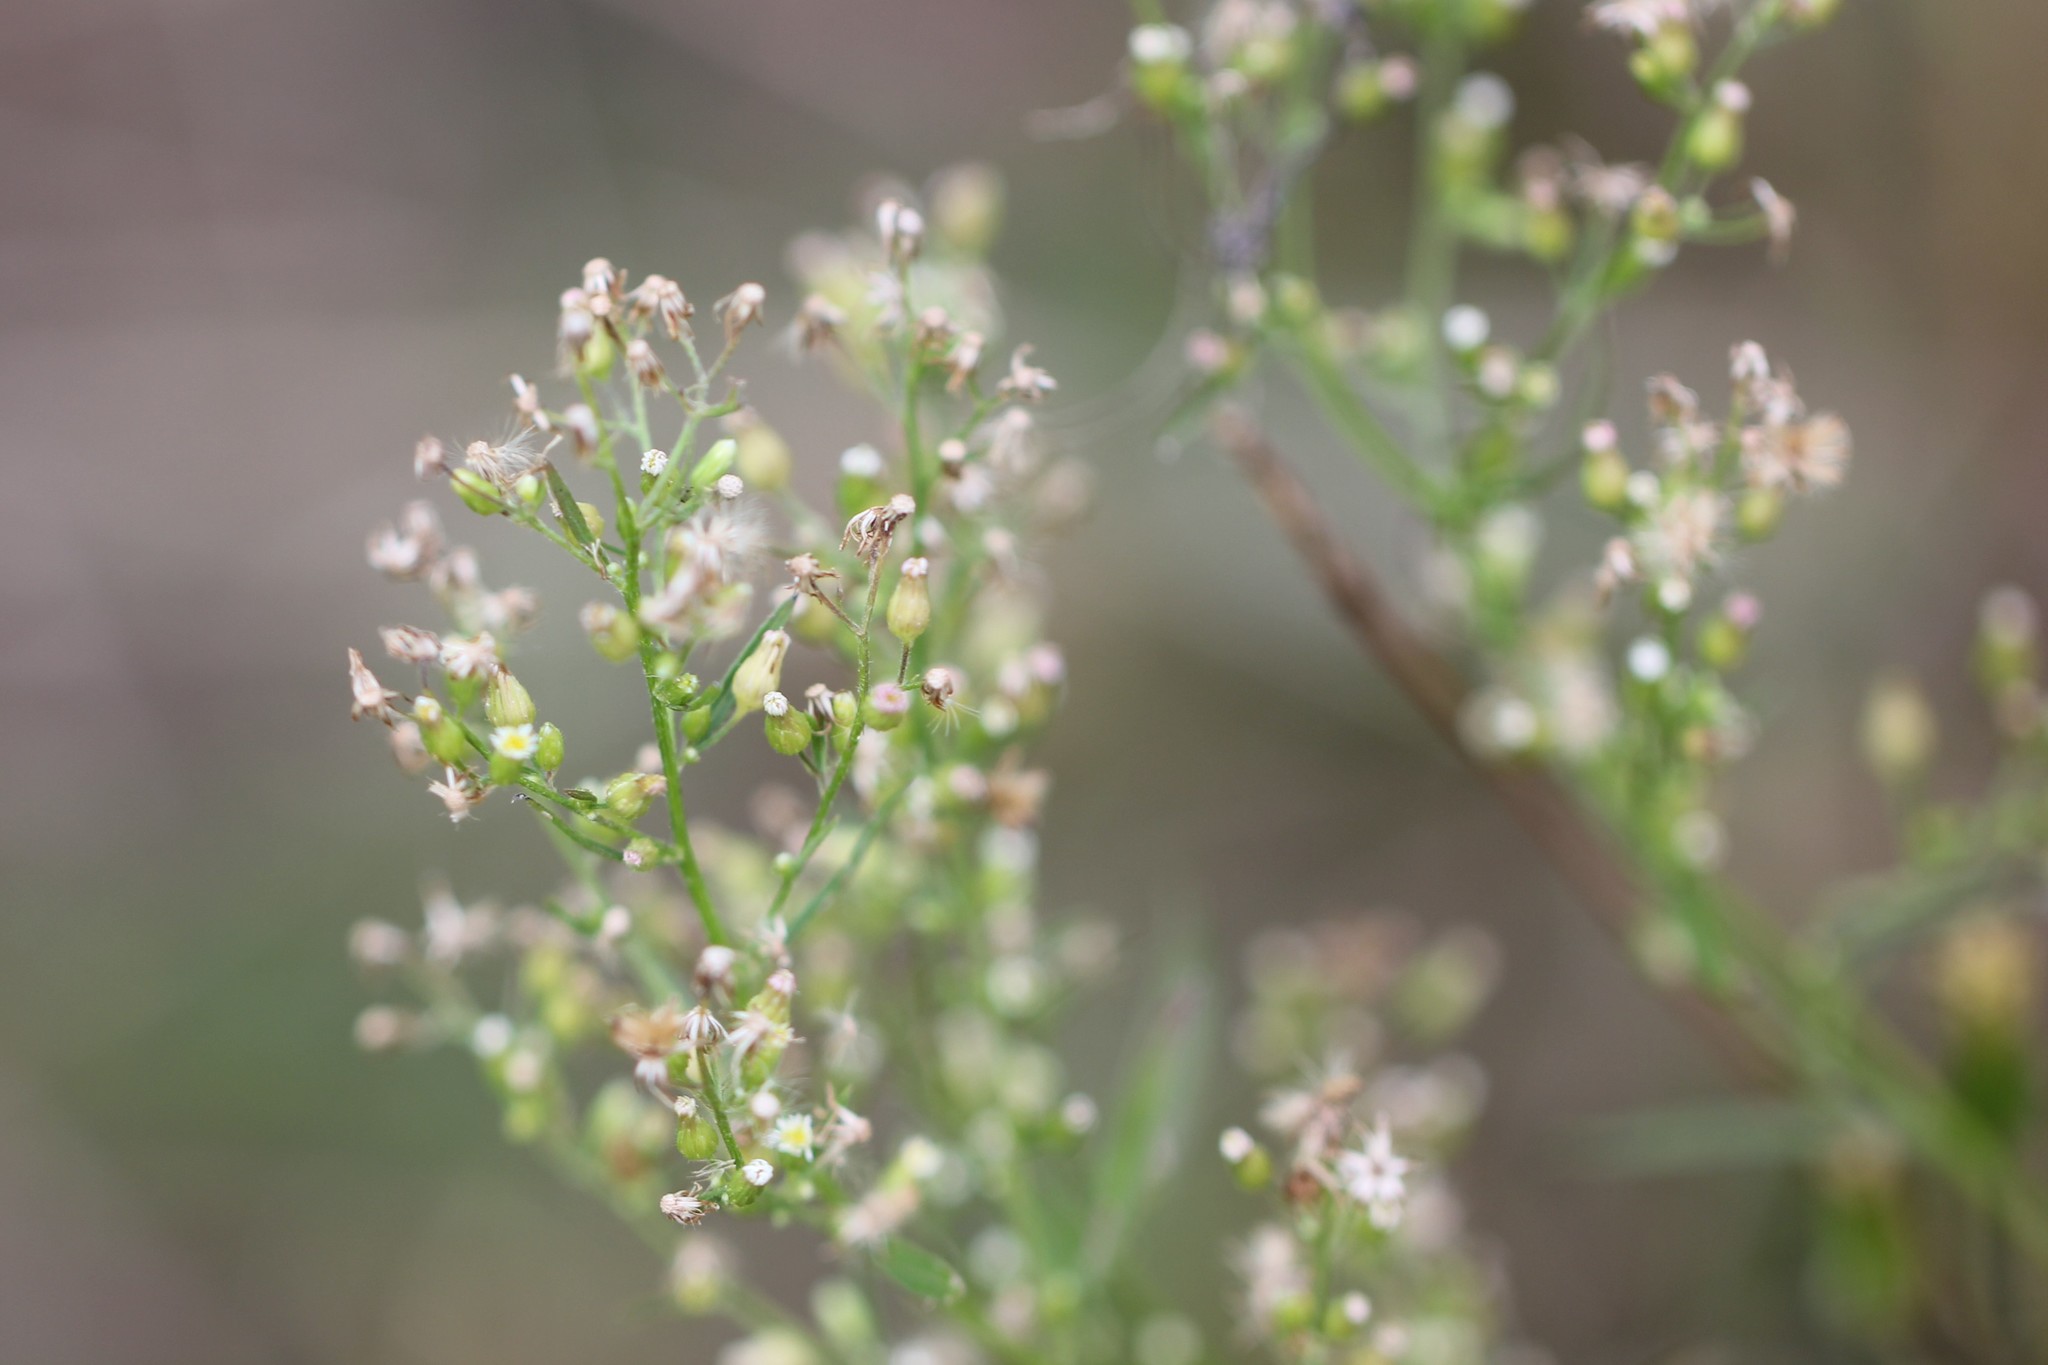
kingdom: Plantae
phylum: Tracheophyta
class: Magnoliopsida
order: Asterales
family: Asteraceae
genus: Erigeron
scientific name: Erigeron canadensis
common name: Canadian fleabane
